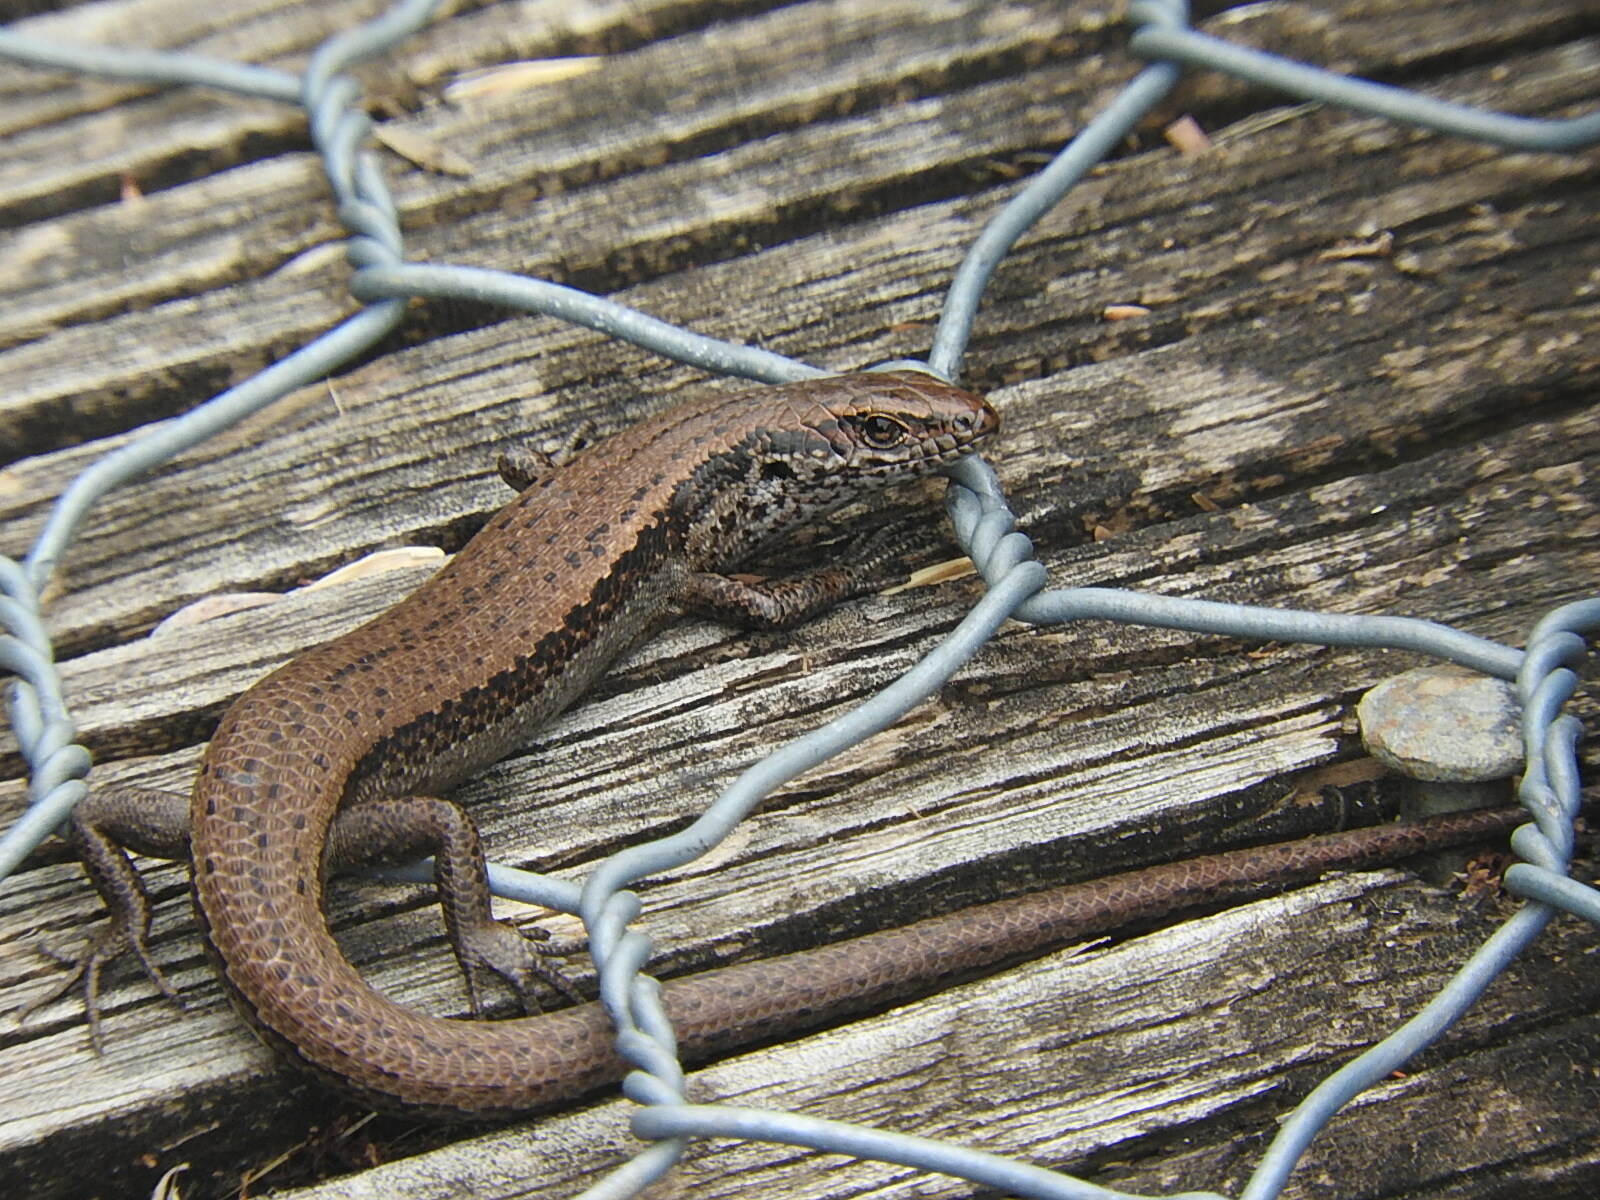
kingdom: Animalia
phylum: Chordata
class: Squamata
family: Scincidae
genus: Carinascincus
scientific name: Carinascincus pretiosus
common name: Agile cool-skink
